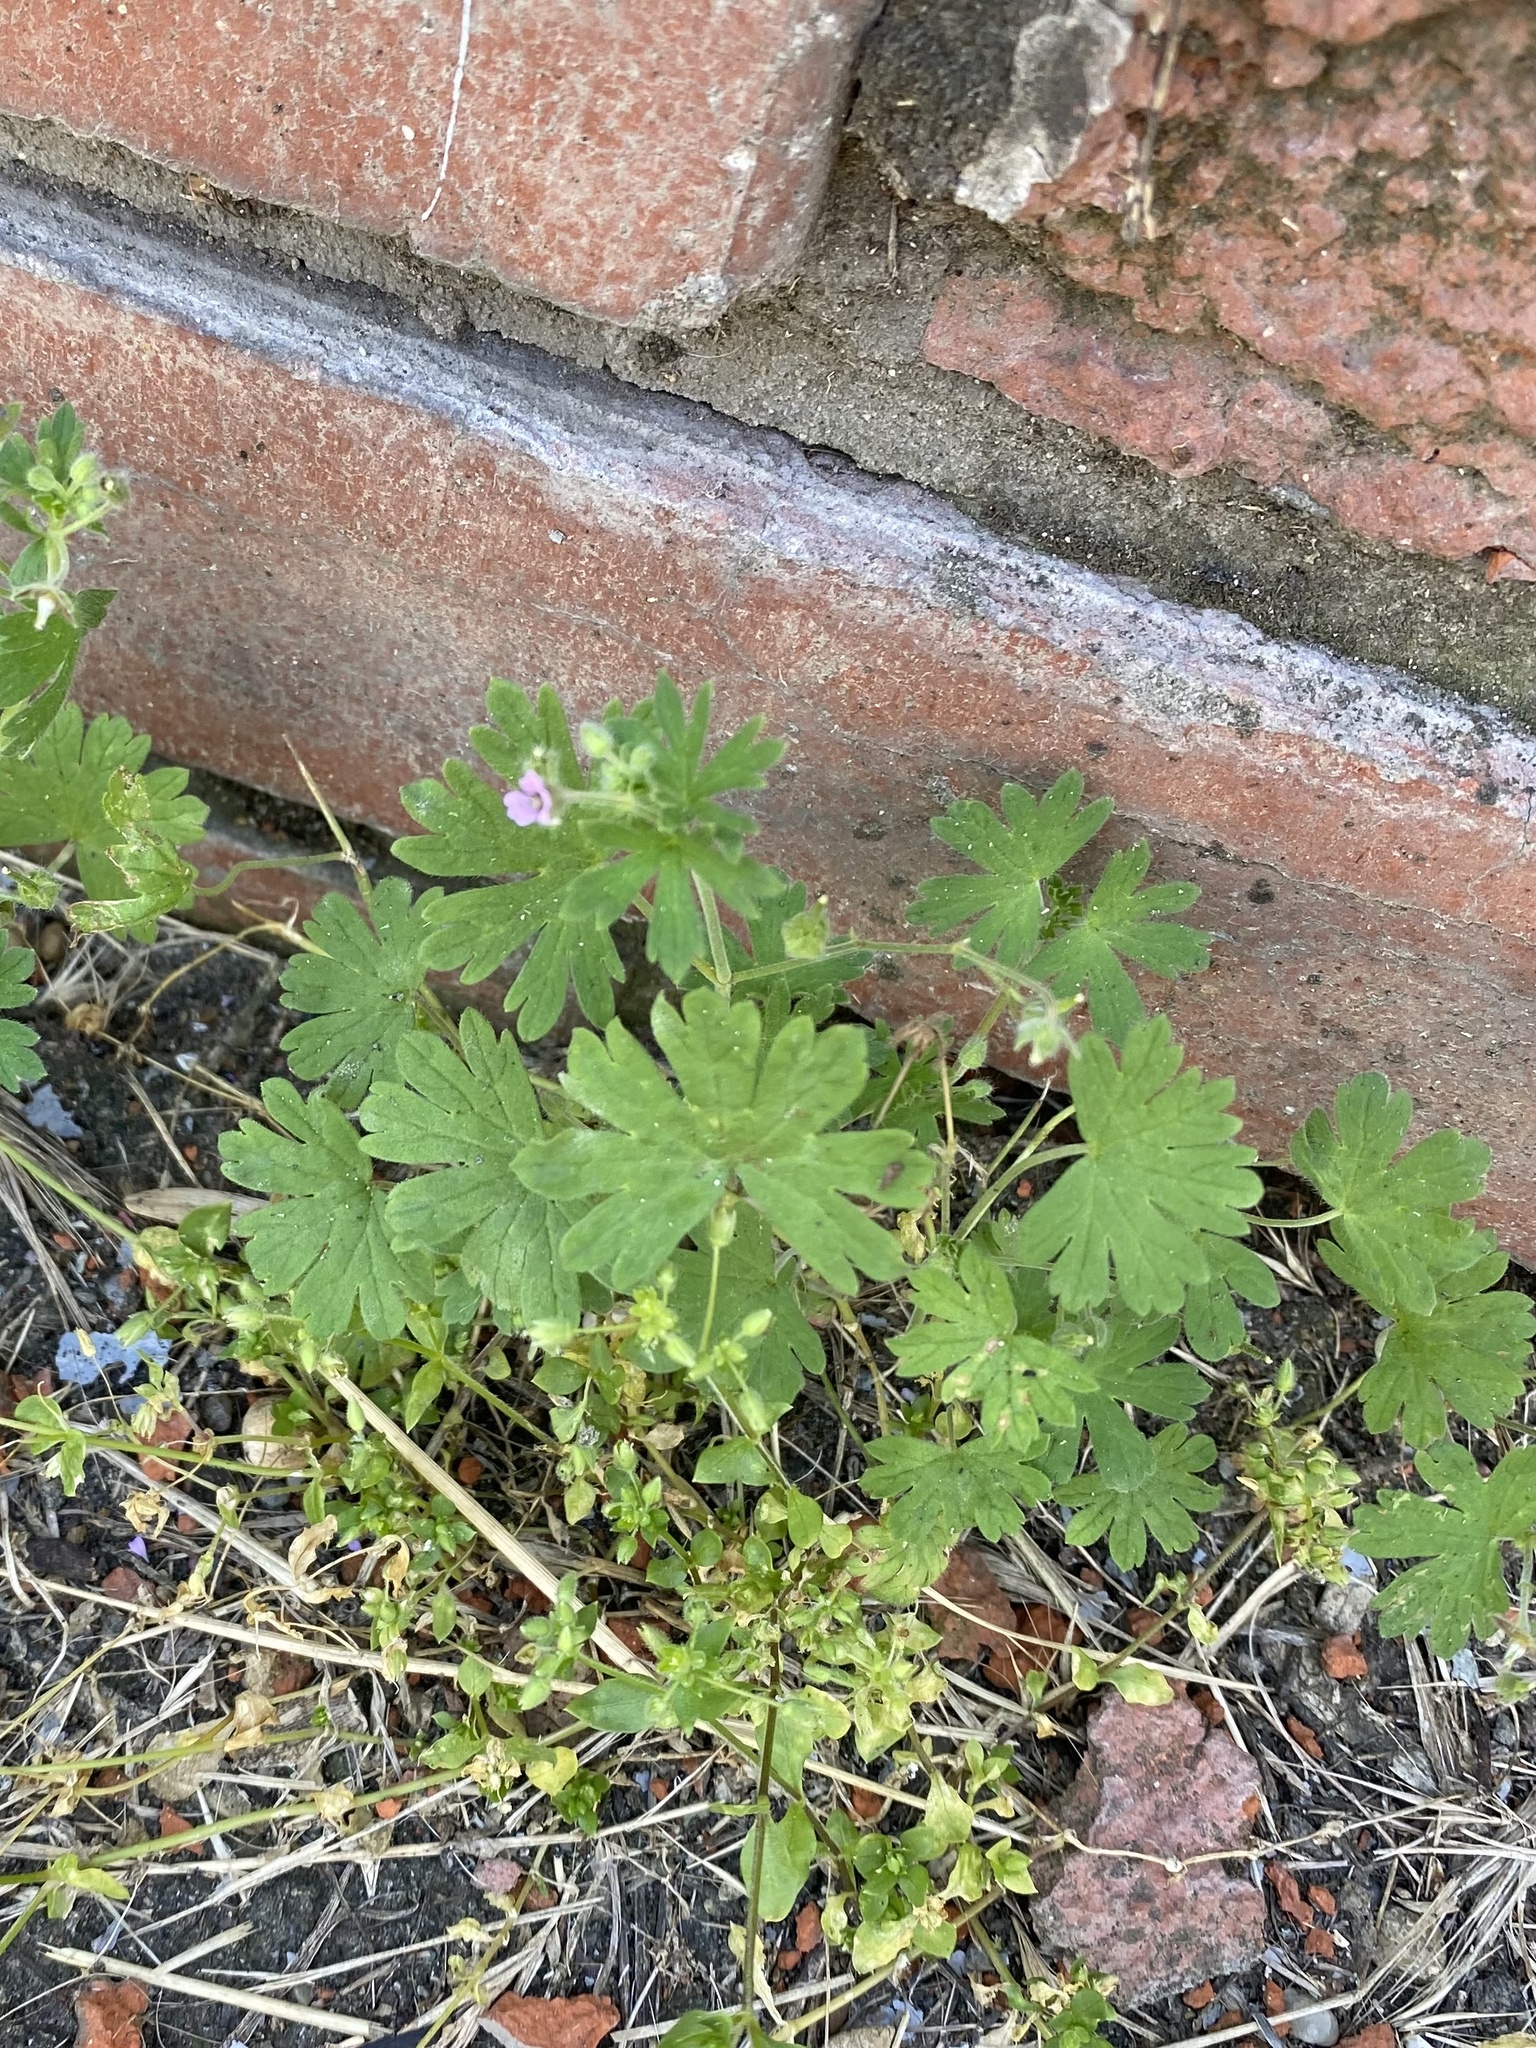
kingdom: Plantae
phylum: Tracheophyta
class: Magnoliopsida
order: Geraniales
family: Geraniaceae
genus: Geranium
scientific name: Geranium pusillum
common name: Small geranium
